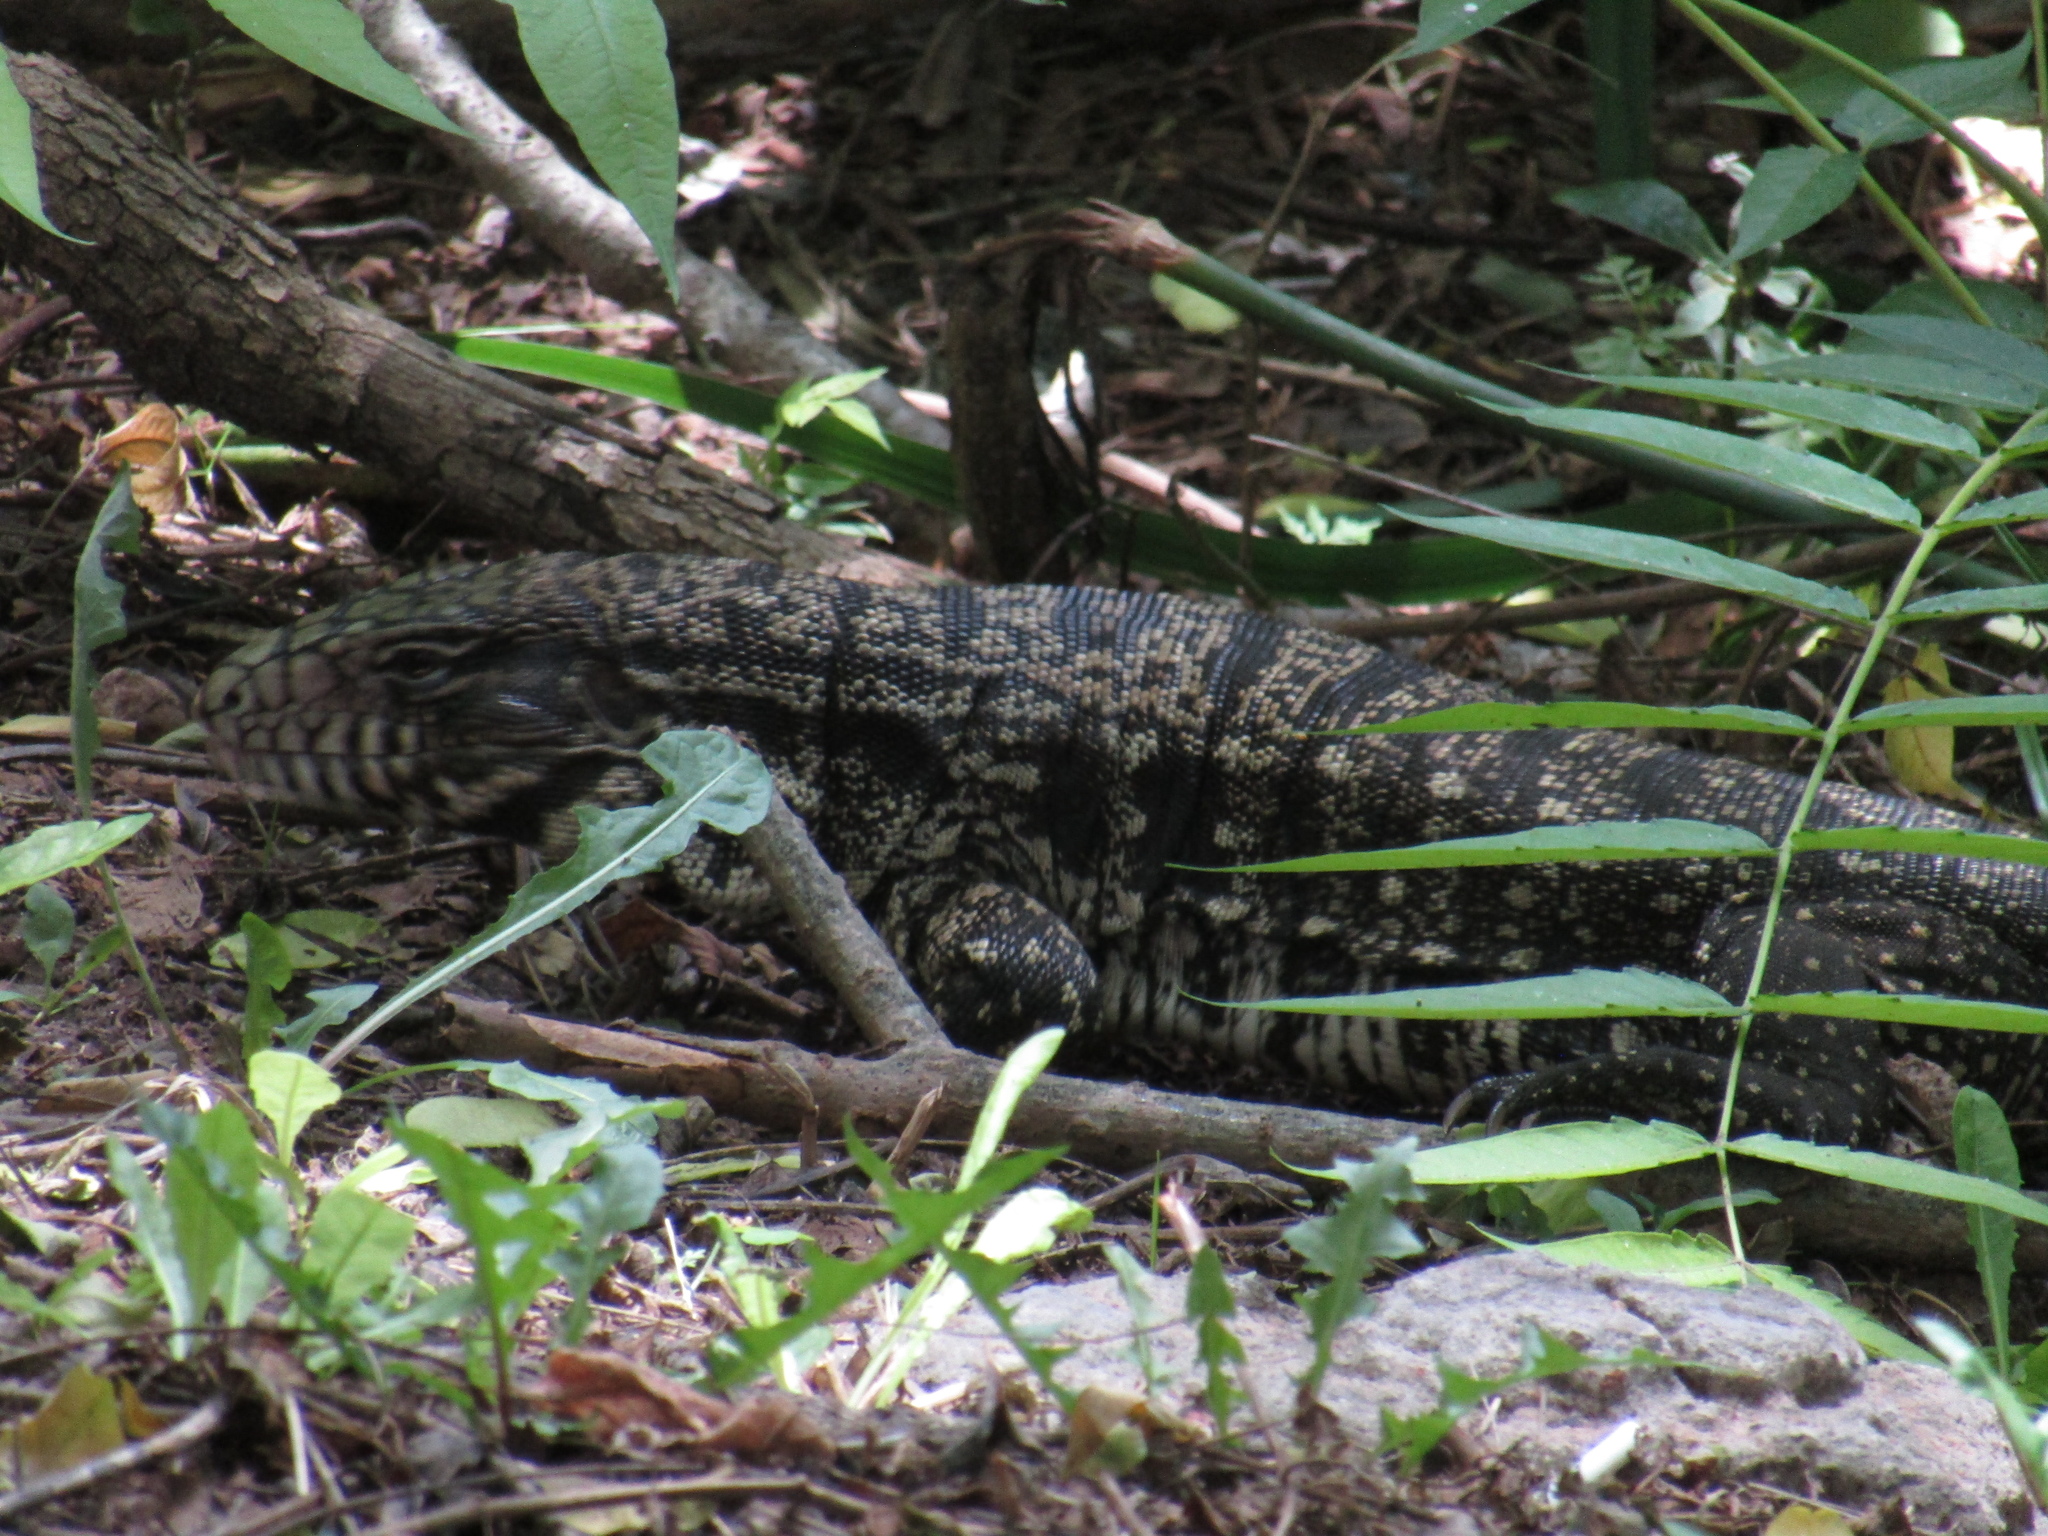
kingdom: Animalia
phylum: Chordata
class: Squamata
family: Teiidae
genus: Salvator
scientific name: Salvator merianae
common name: Argentine black and white tegu
